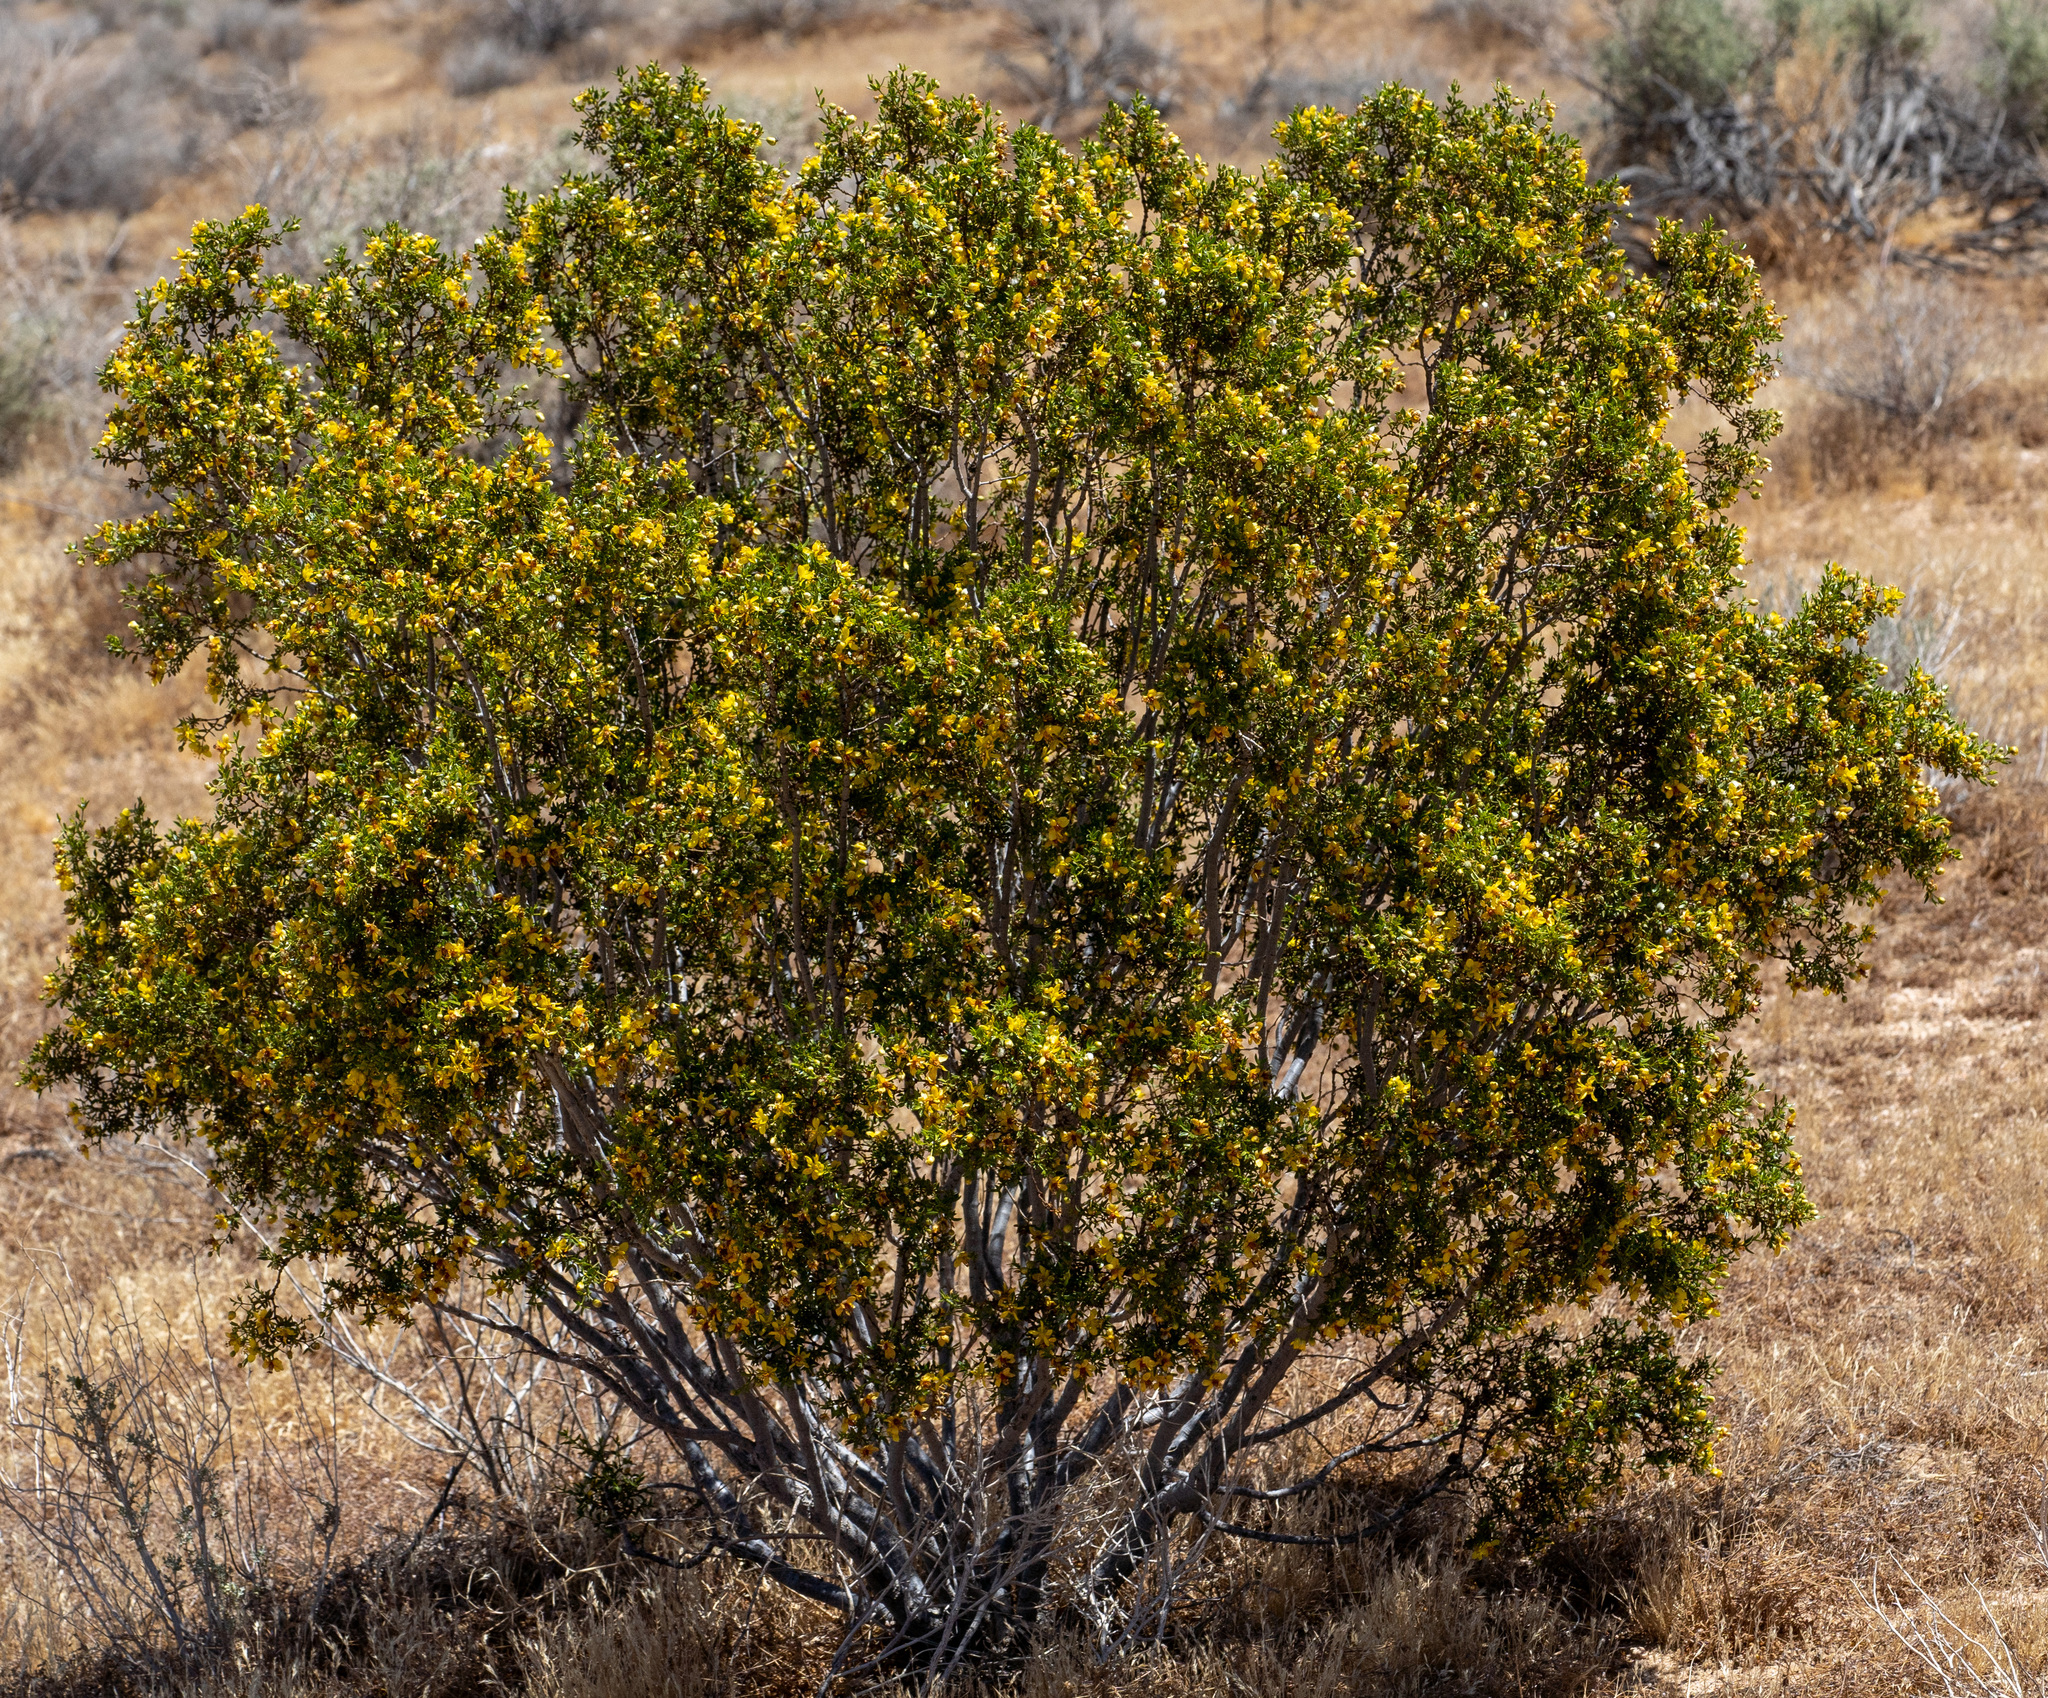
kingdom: Plantae
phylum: Tracheophyta
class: Magnoliopsida
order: Zygophyllales
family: Zygophyllaceae
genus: Larrea
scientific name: Larrea tridentata
